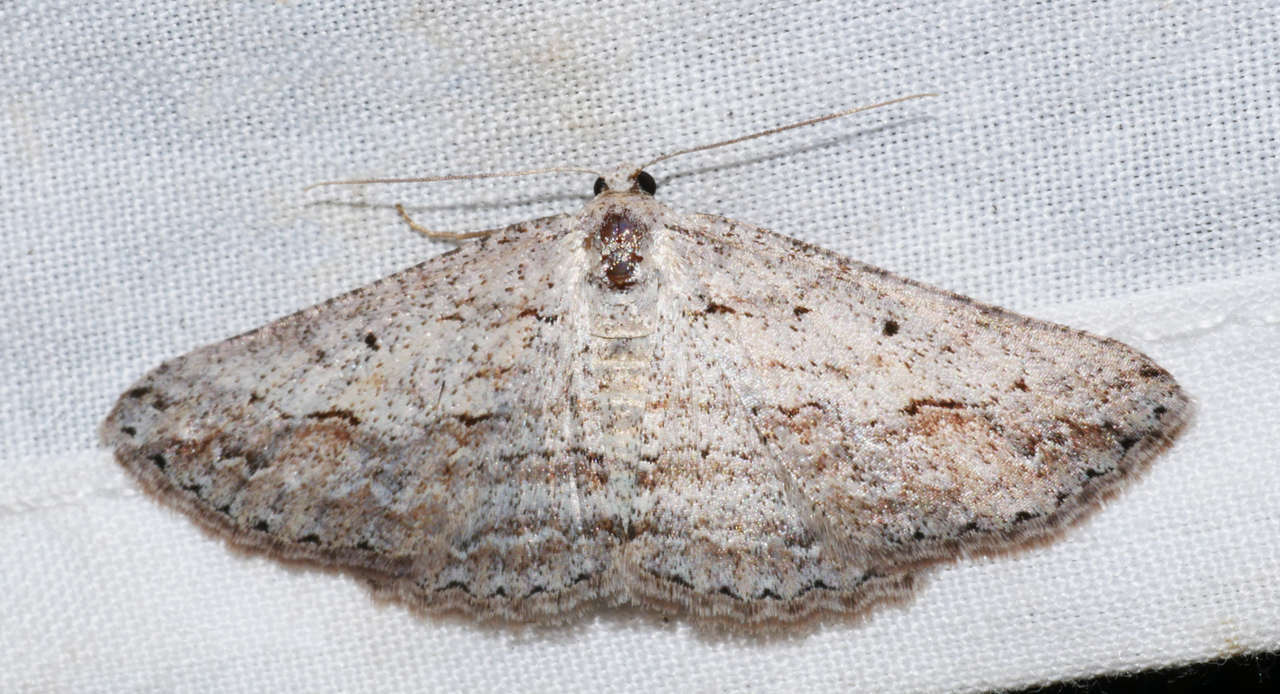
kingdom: Animalia
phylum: Arthropoda
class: Insecta
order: Lepidoptera
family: Geometridae
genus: Syneora
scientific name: Syneora mundifera
